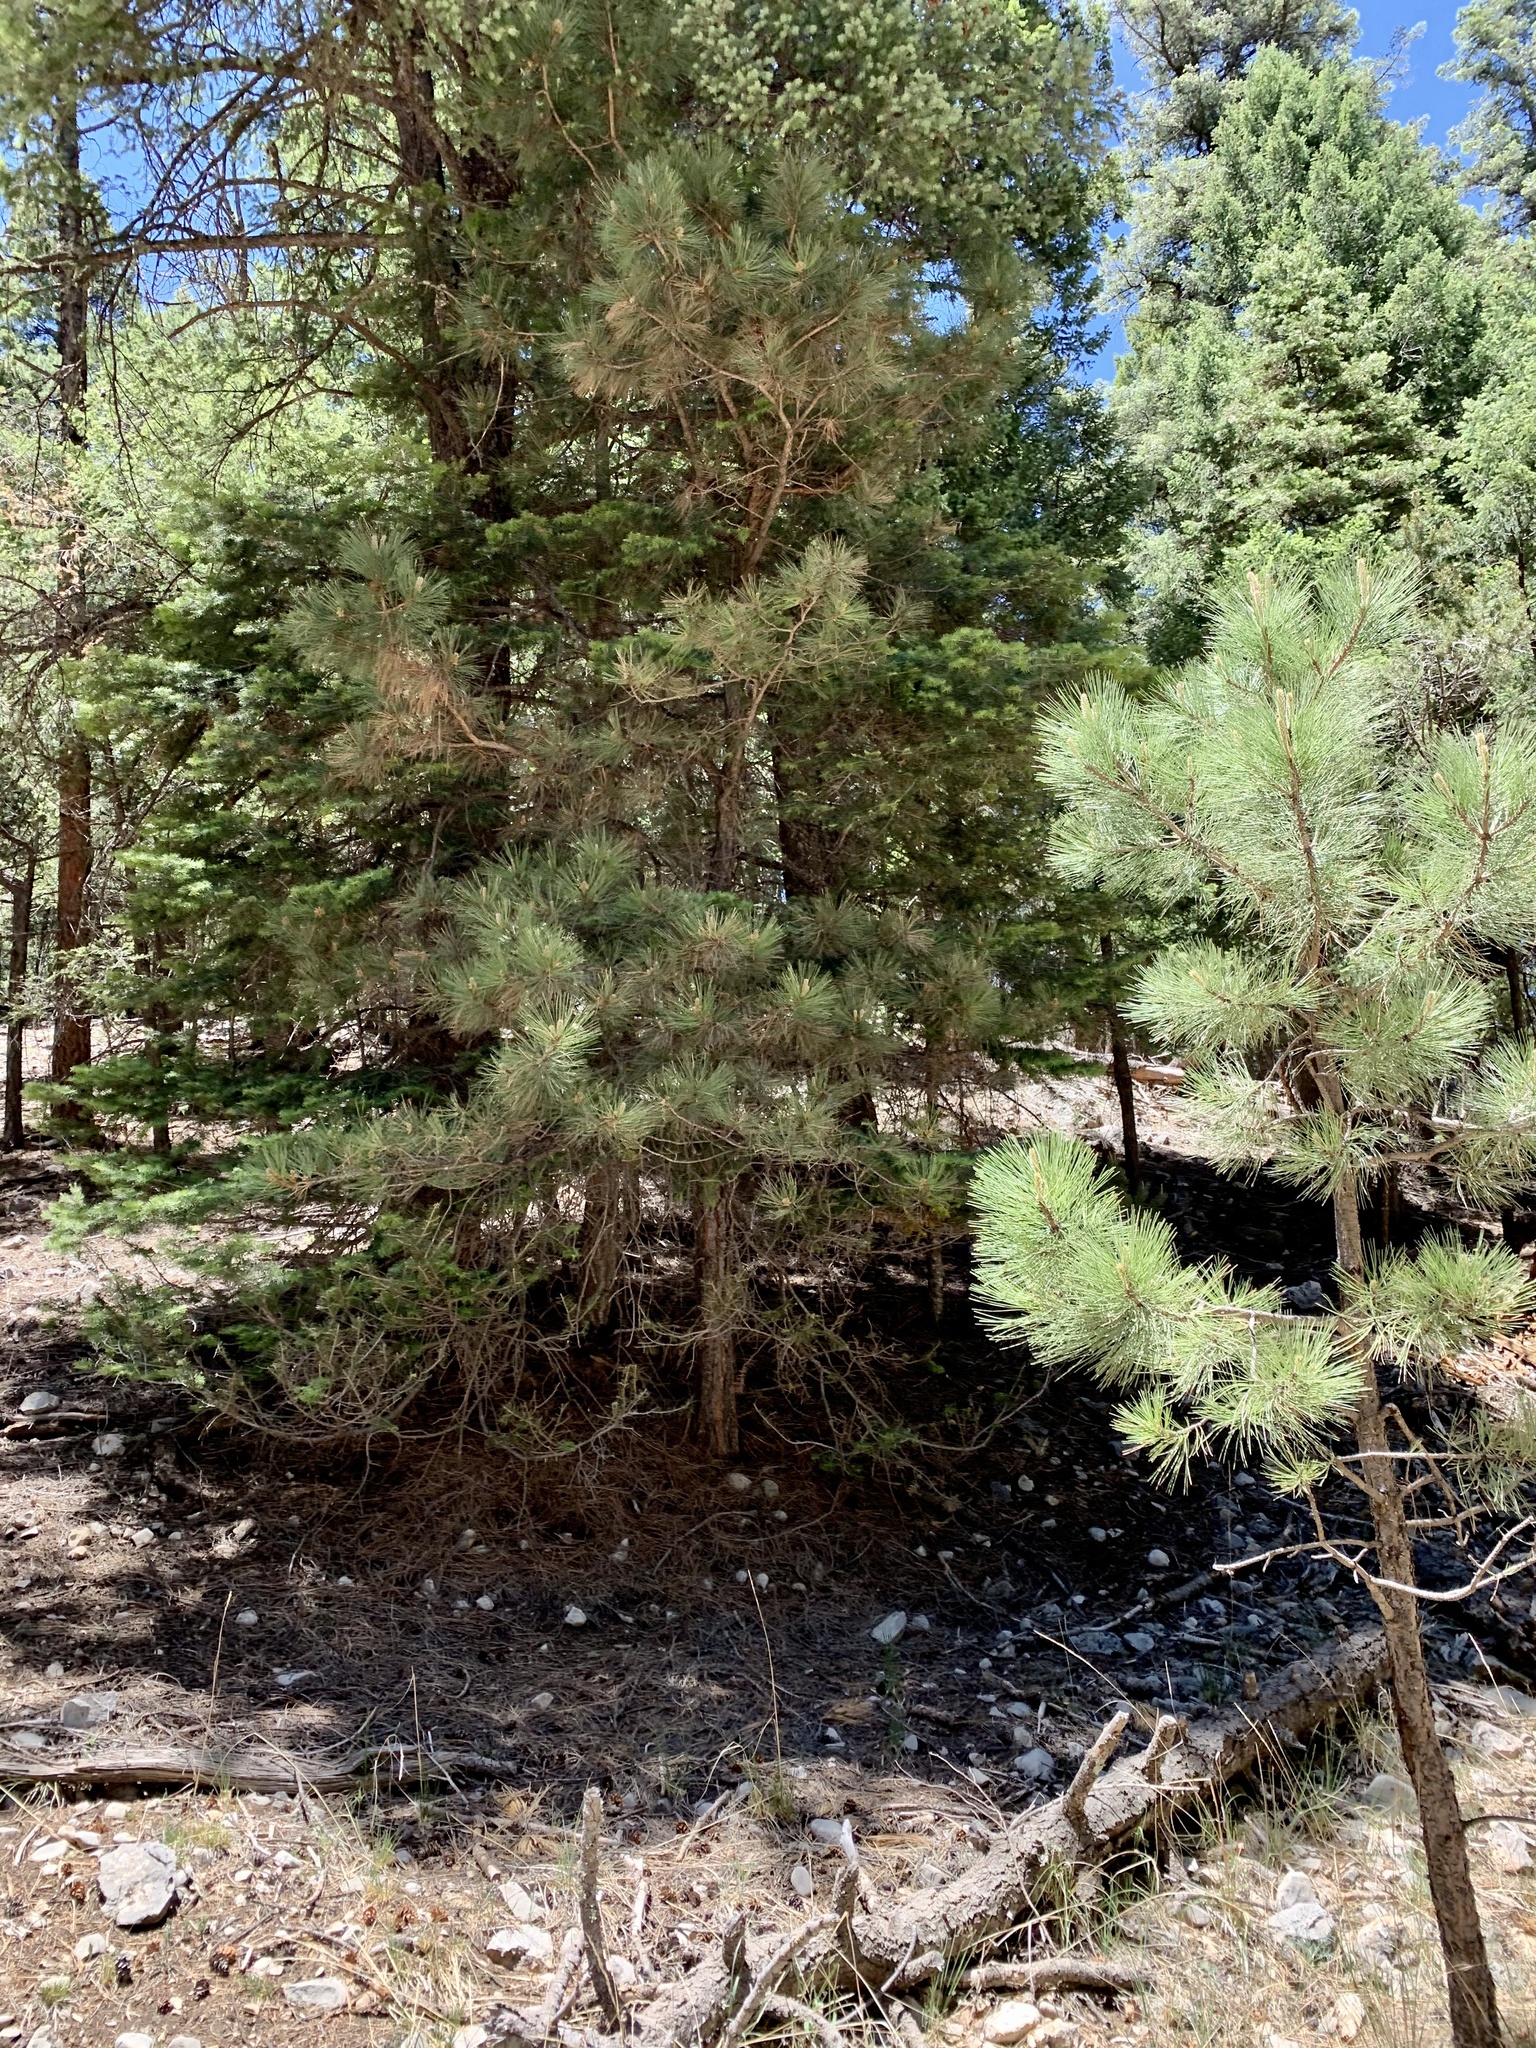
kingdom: Plantae
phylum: Tracheophyta
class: Pinopsida
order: Pinales
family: Pinaceae
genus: Pinus
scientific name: Pinus ponderosa
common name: Western yellow-pine
